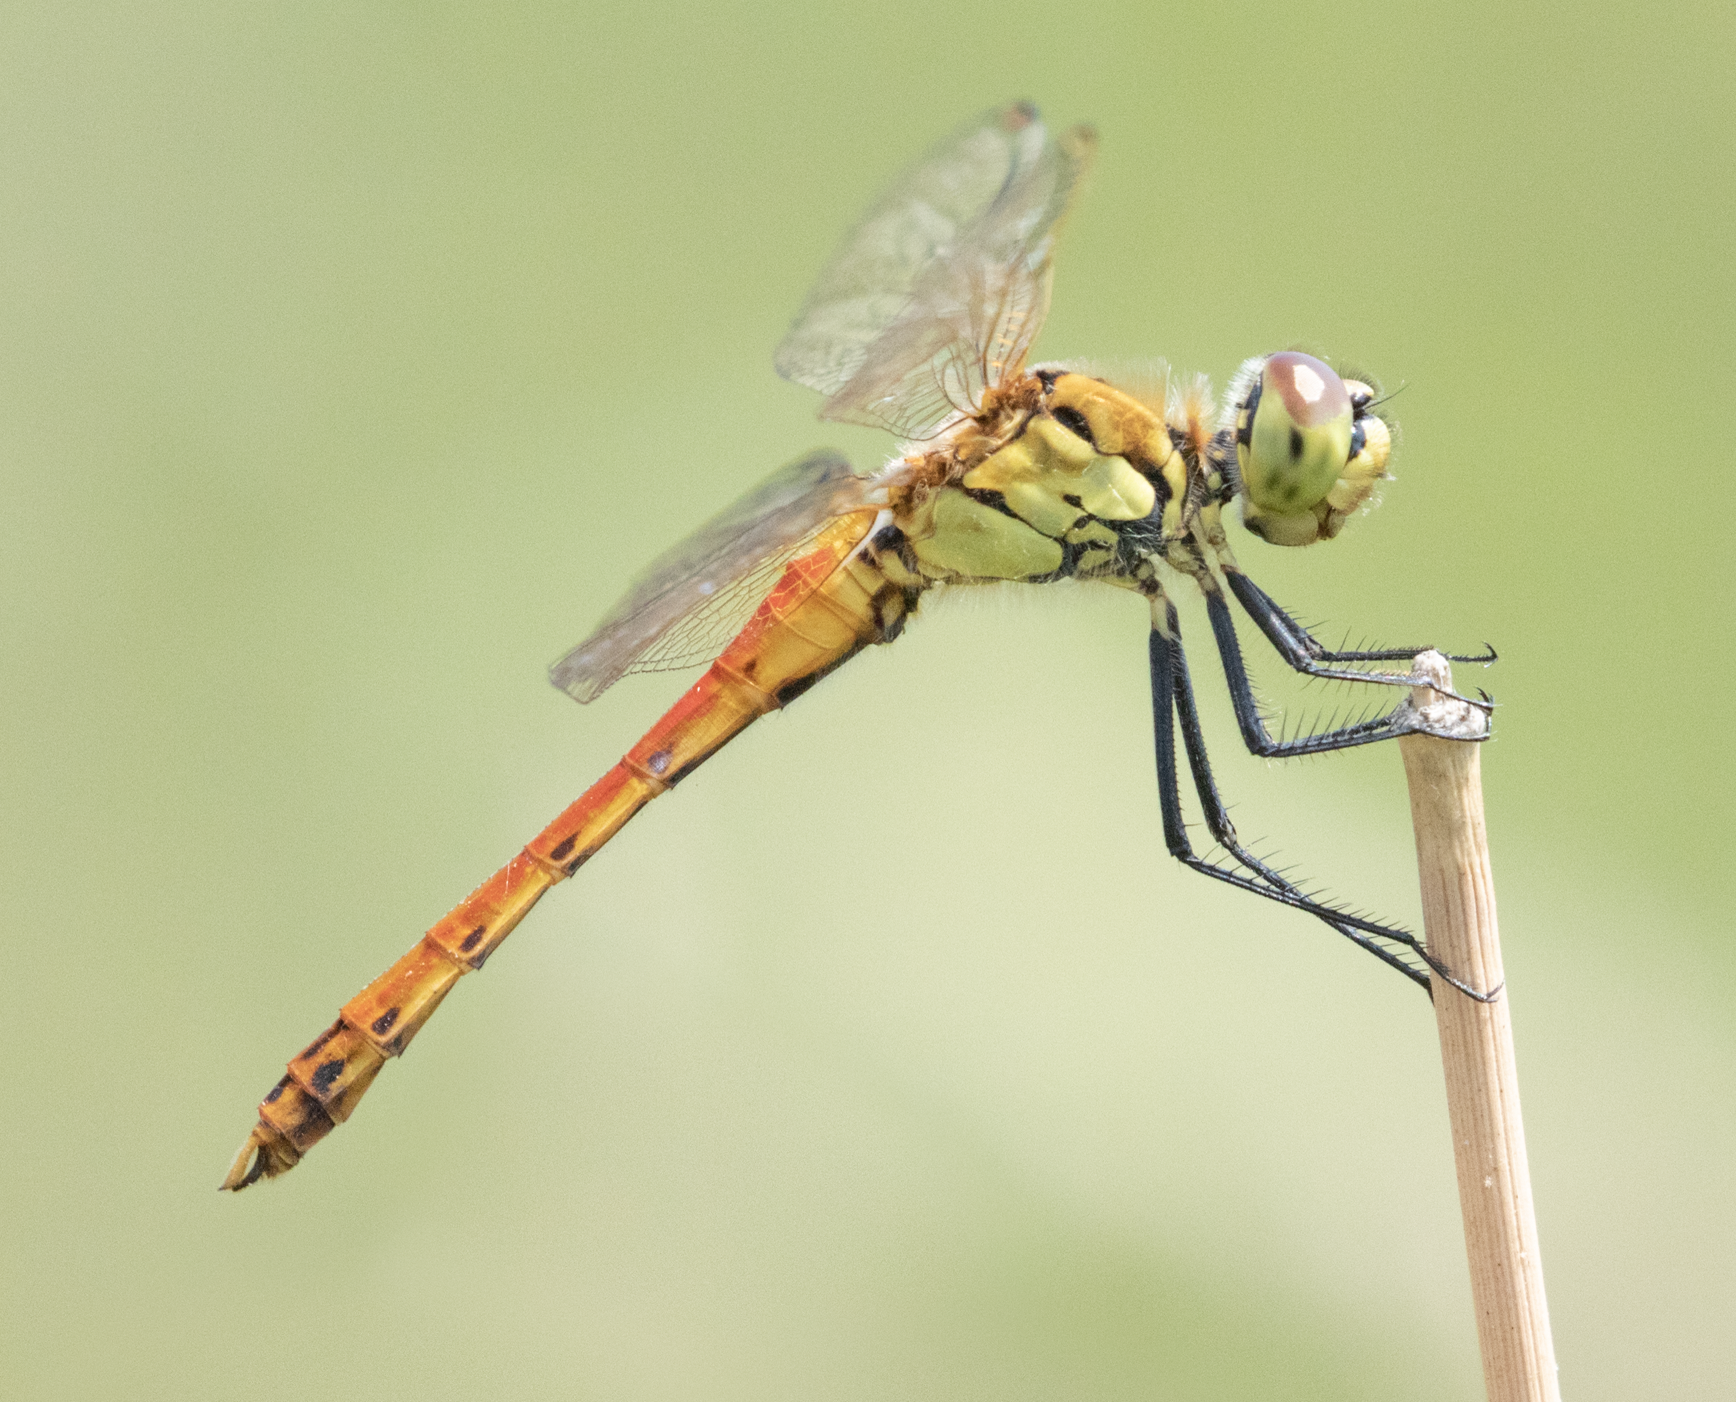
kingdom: Animalia
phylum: Arthropoda
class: Insecta
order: Odonata
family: Libellulidae
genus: Sympetrum
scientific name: Sympetrum depressiusculum
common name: Spotted darter
